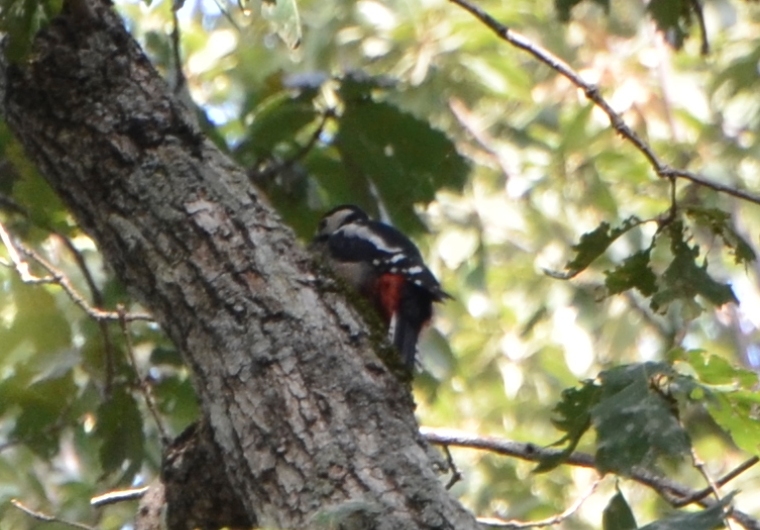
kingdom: Animalia
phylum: Chordata
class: Aves
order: Piciformes
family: Picidae
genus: Dendrocopos
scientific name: Dendrocopos major
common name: Great spotted woodpecker
